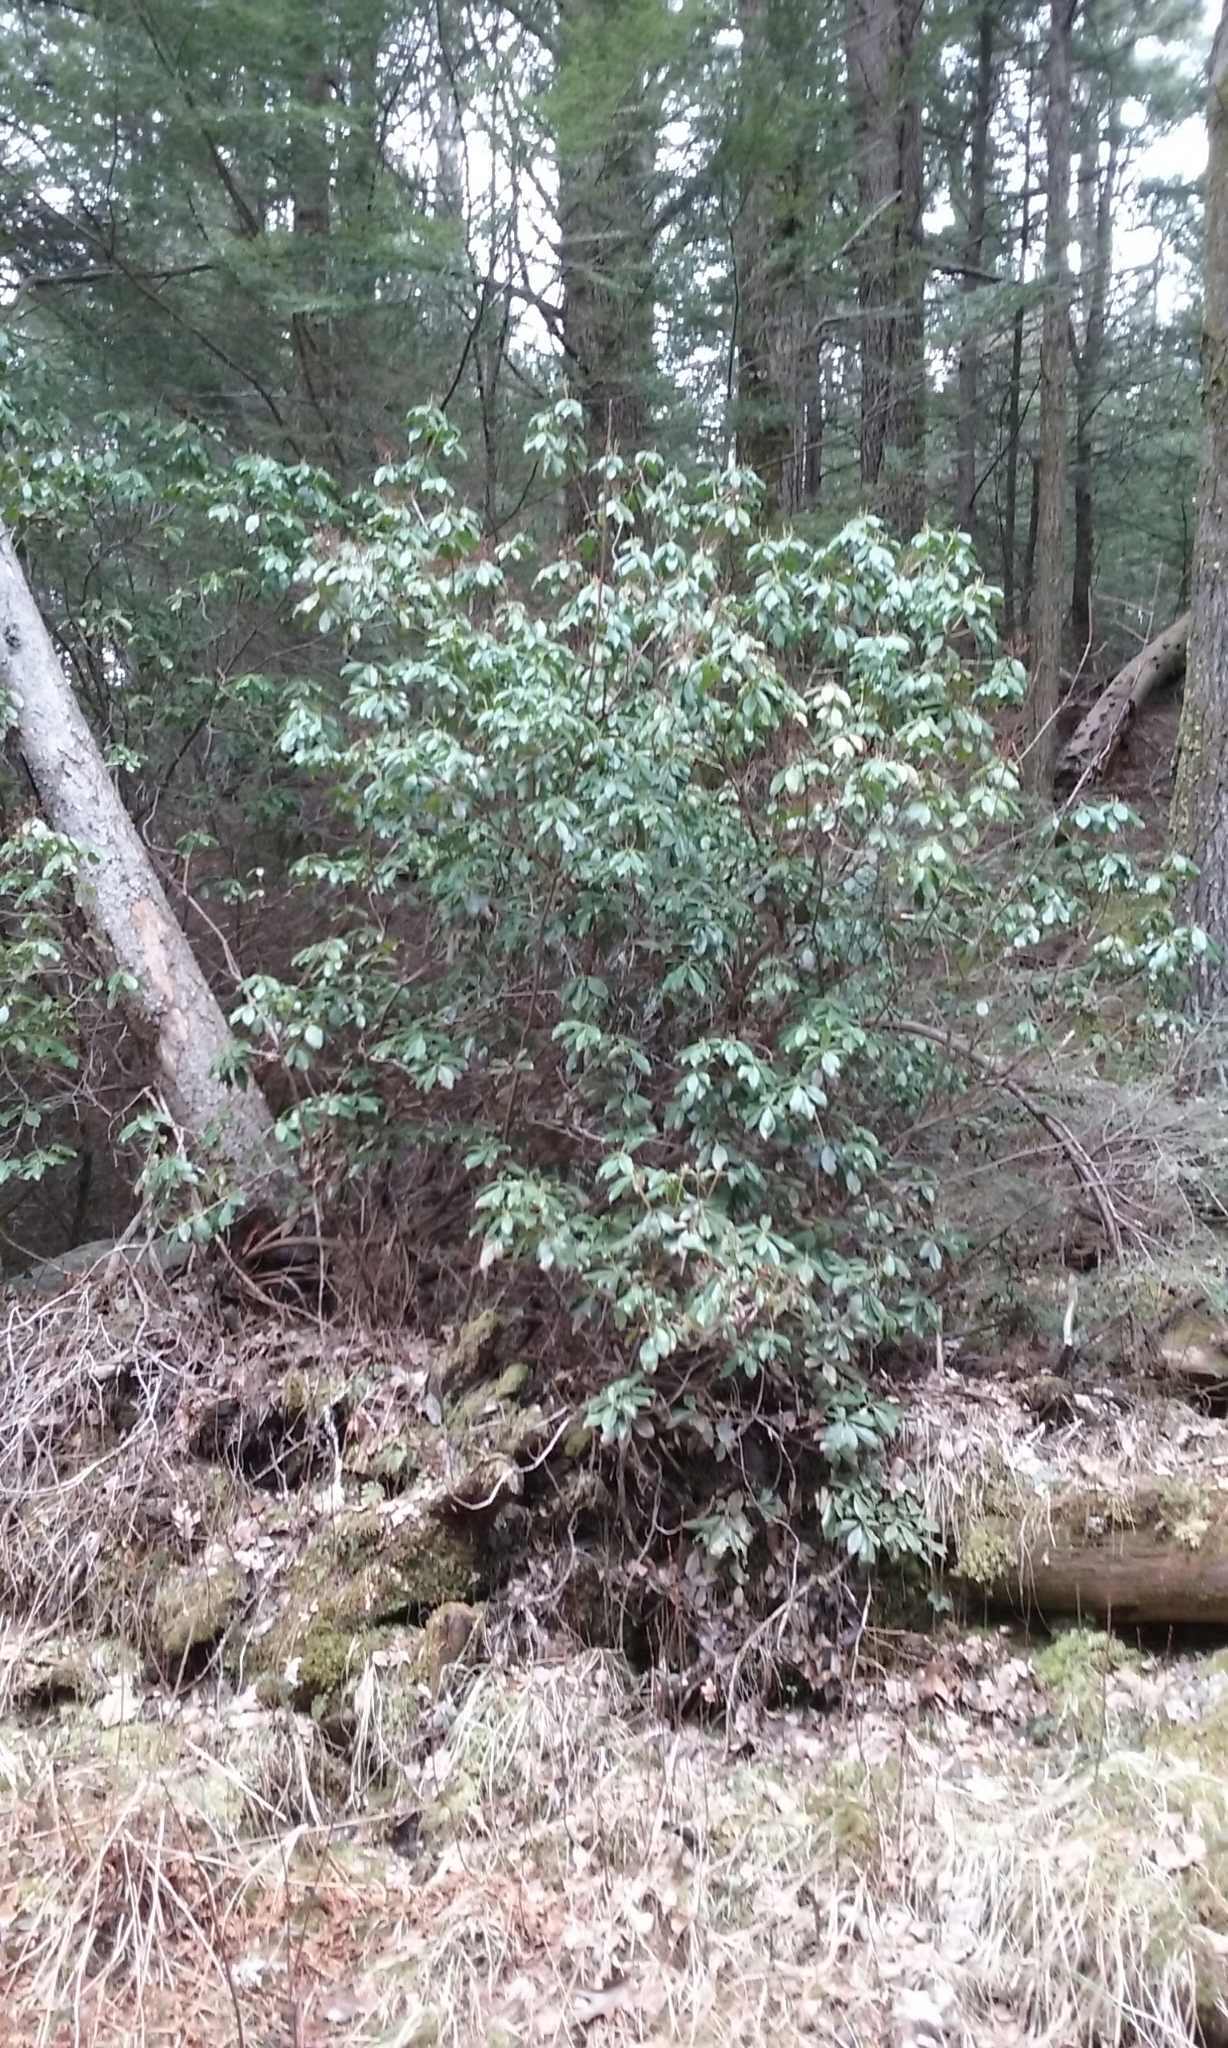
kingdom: Plantae
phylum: Tracheophyta
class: Magnoliopsida
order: Ericales
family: Ericaceae
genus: Kalmia
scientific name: Kalmia latifolia
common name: Mountain-laurel
